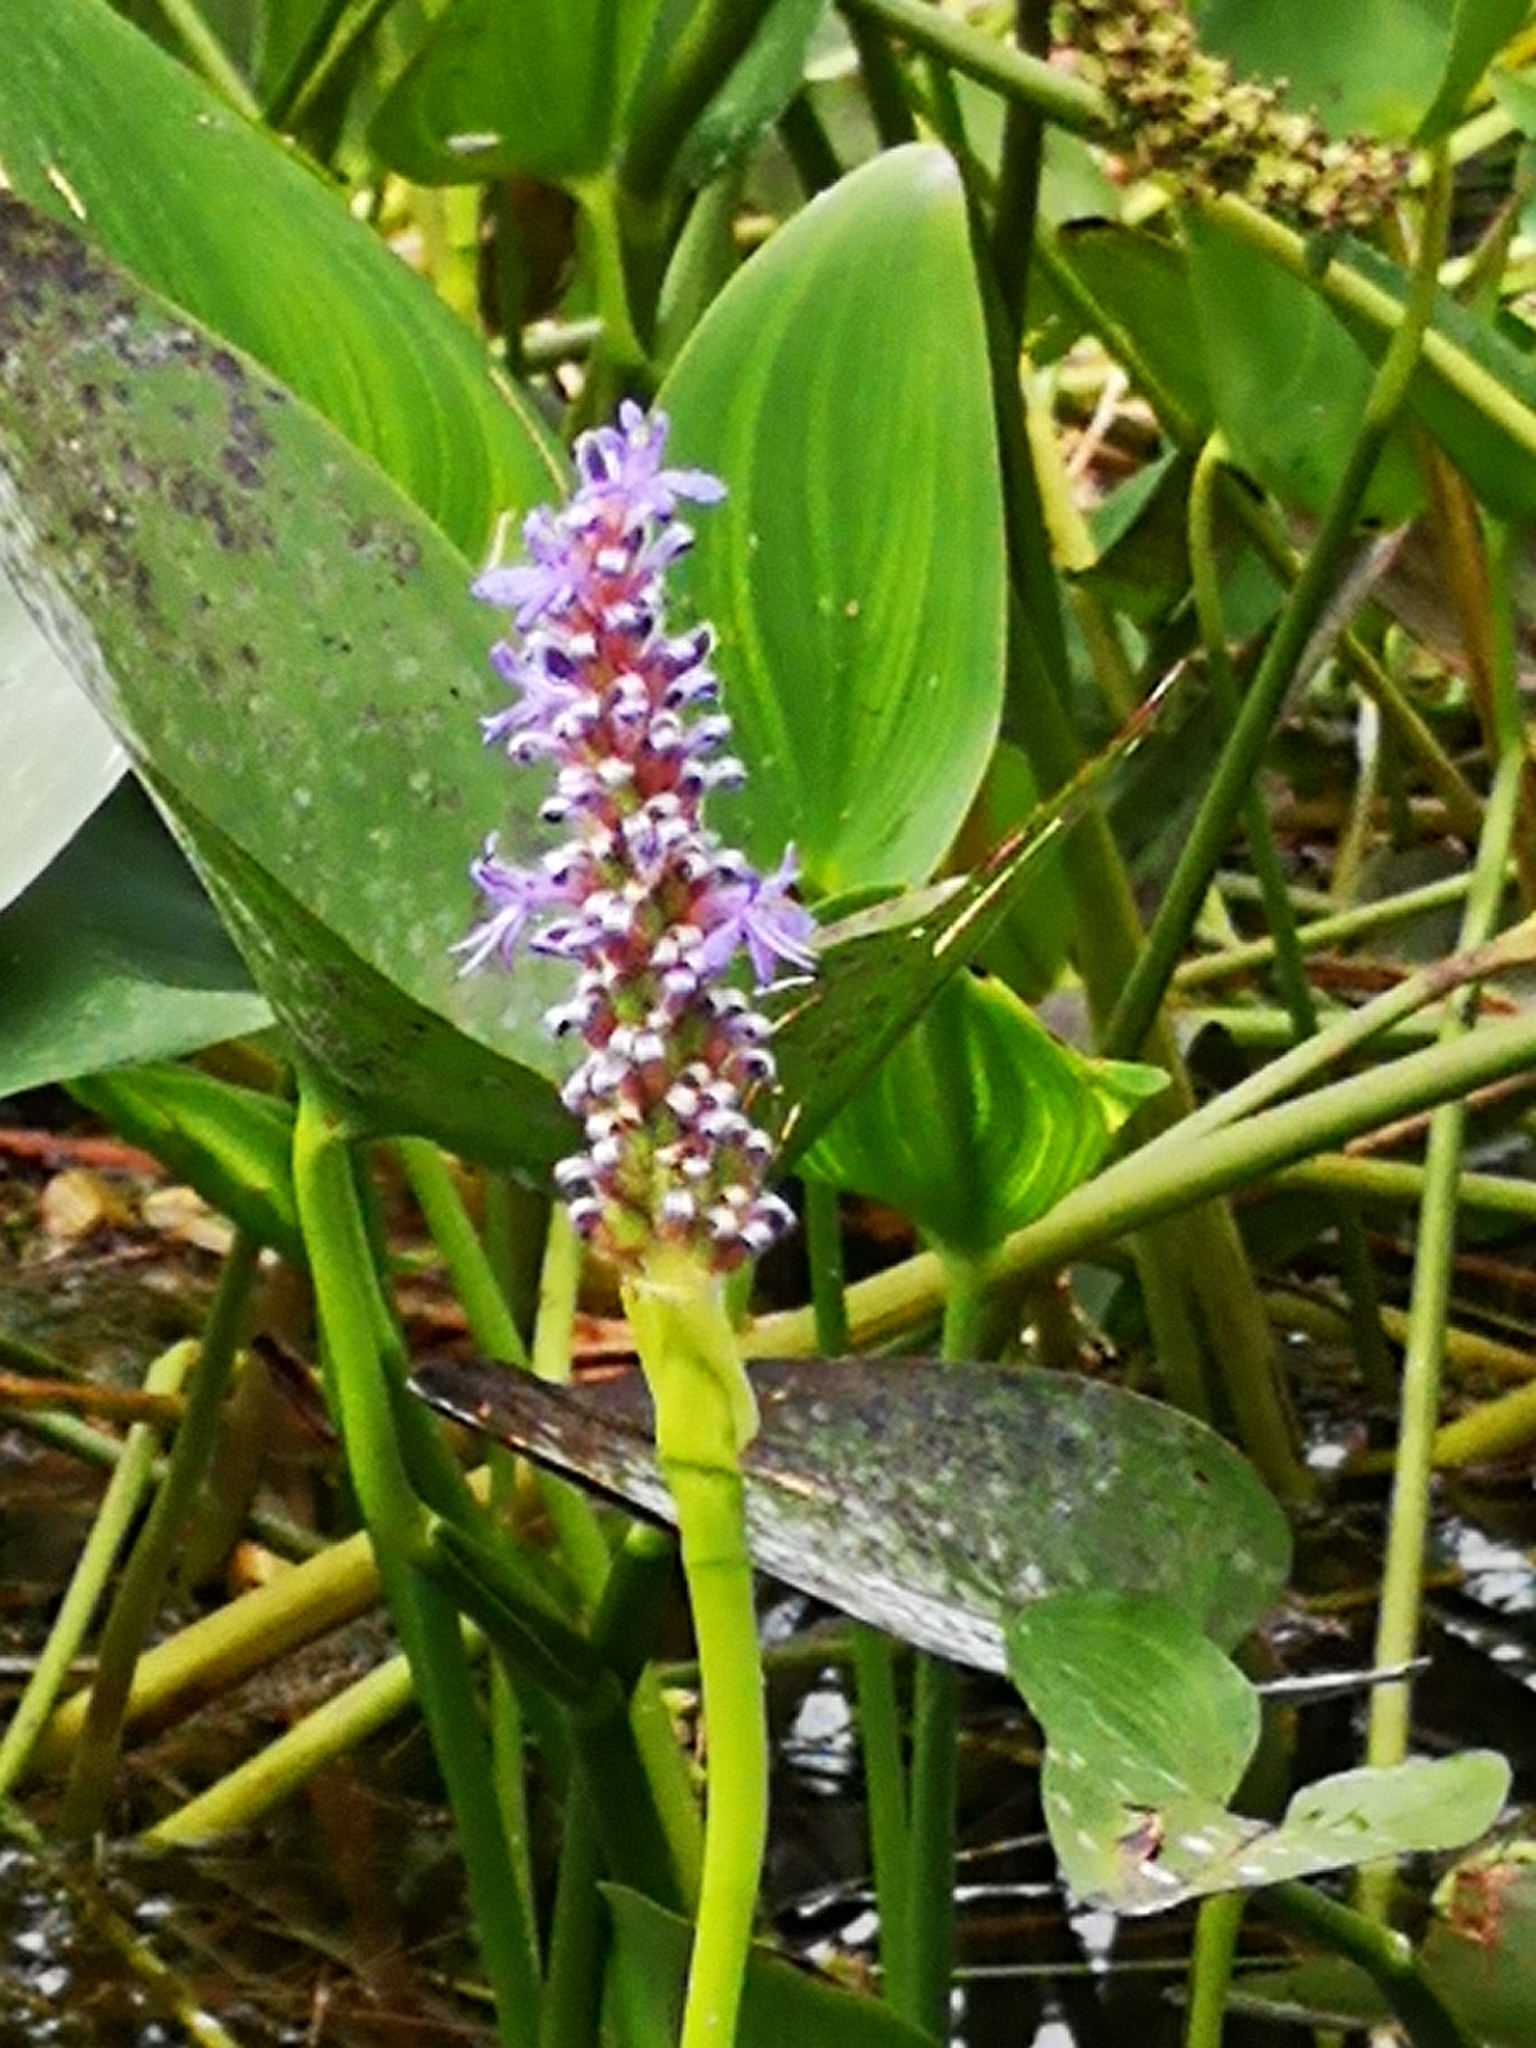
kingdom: Plantae
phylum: Tracheophyta
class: Liliopsida
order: Commelinales
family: Pontederiaceae
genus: Pontederia
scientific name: Pontederia cordata
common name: Pickerelweed
